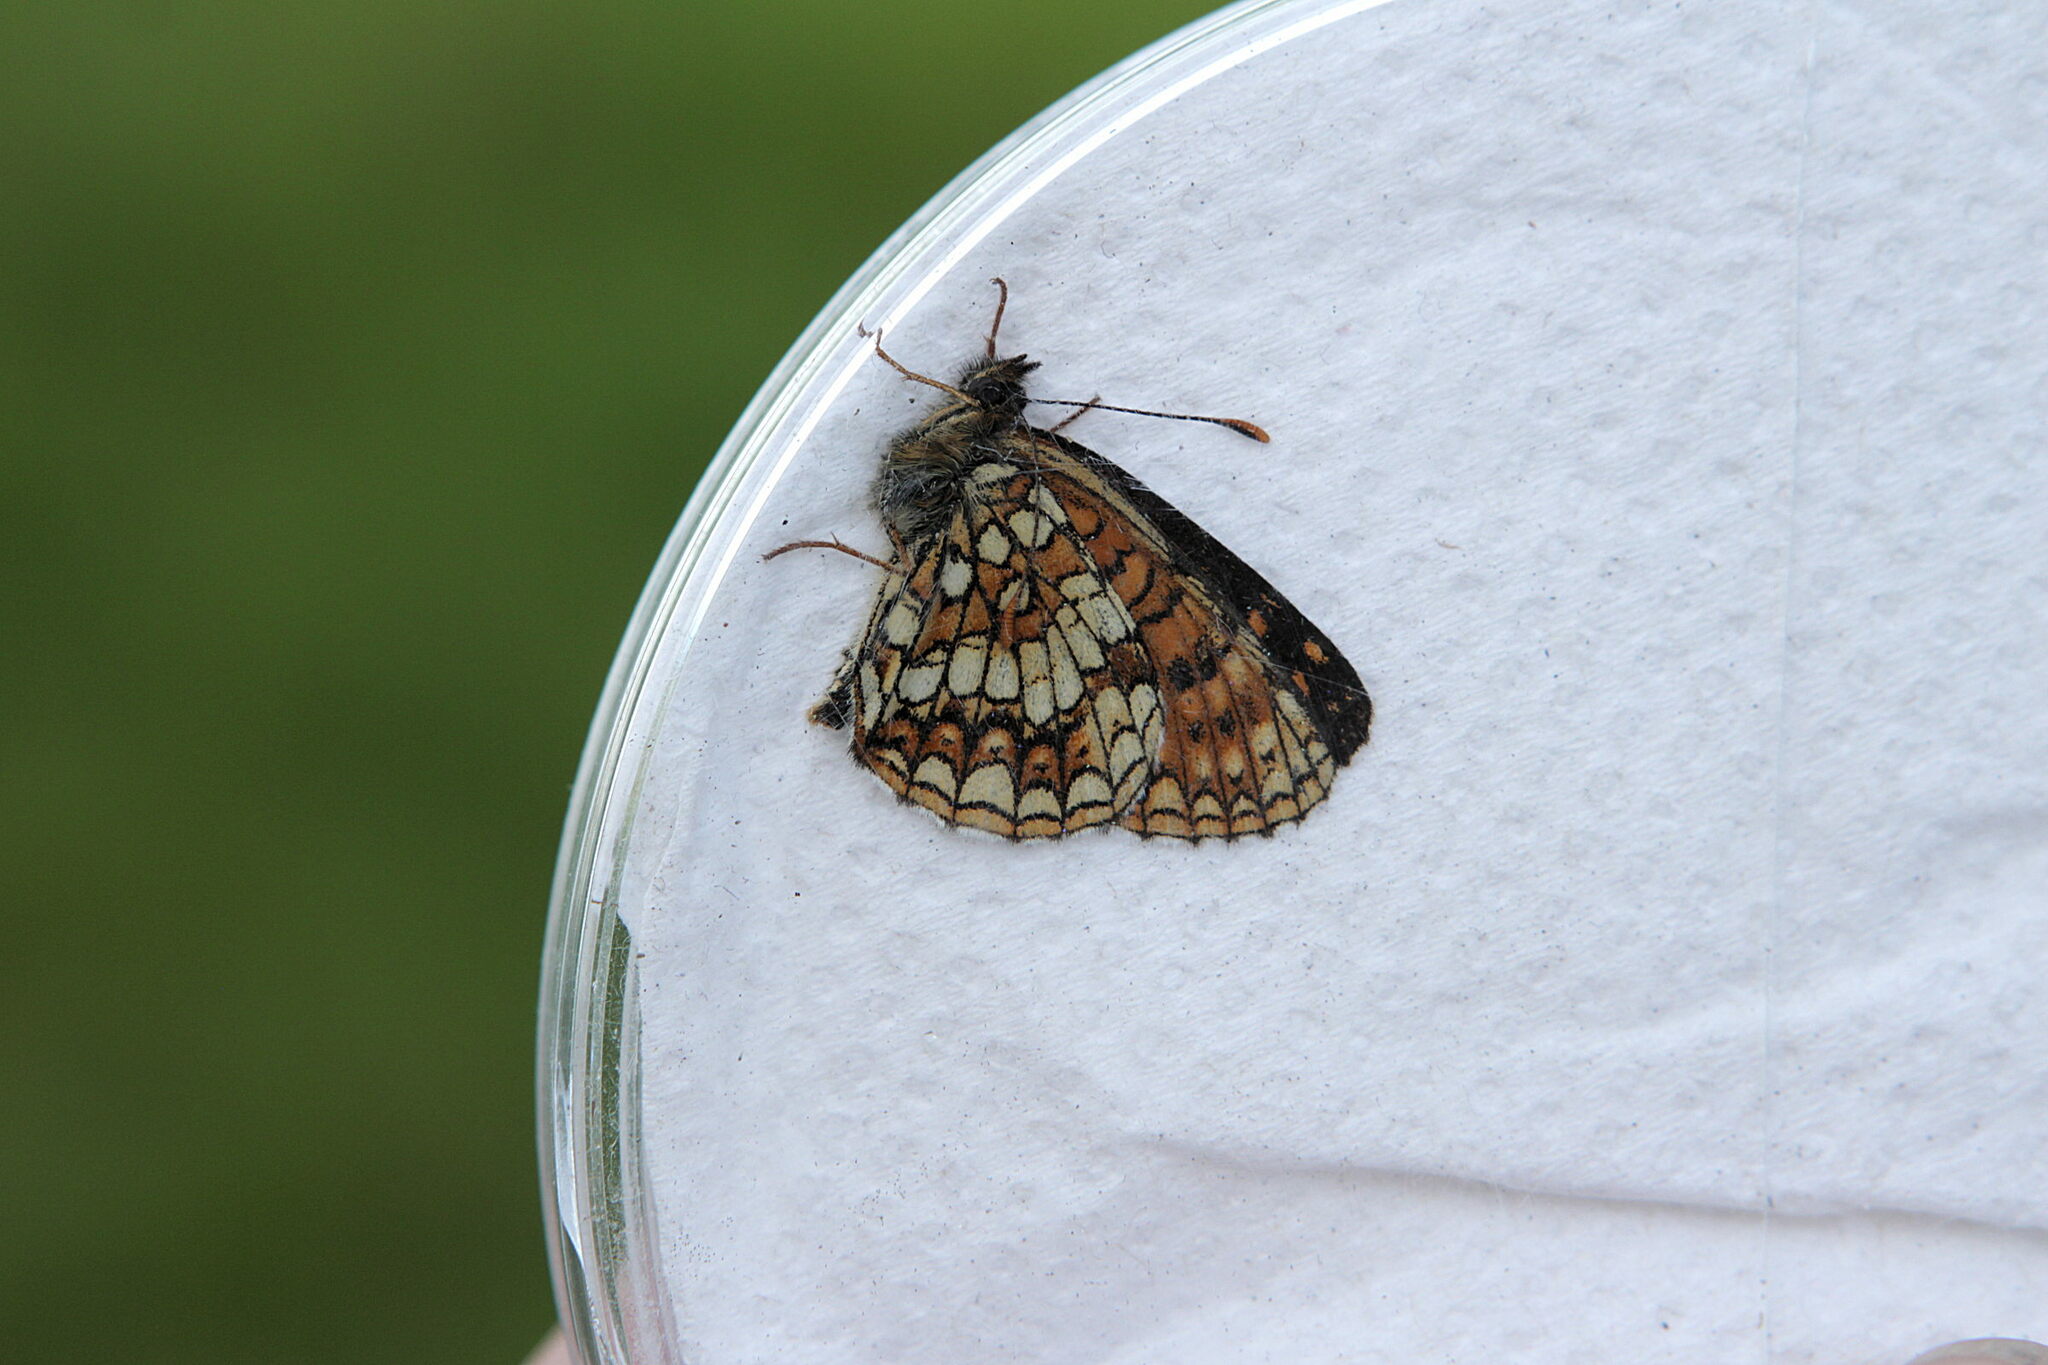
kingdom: Animalia
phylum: Arthropoda
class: Insecta
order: Lepidoptera
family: Nymphalidae
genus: Melitaea
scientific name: Melitaea diamina
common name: False heath fritillary
